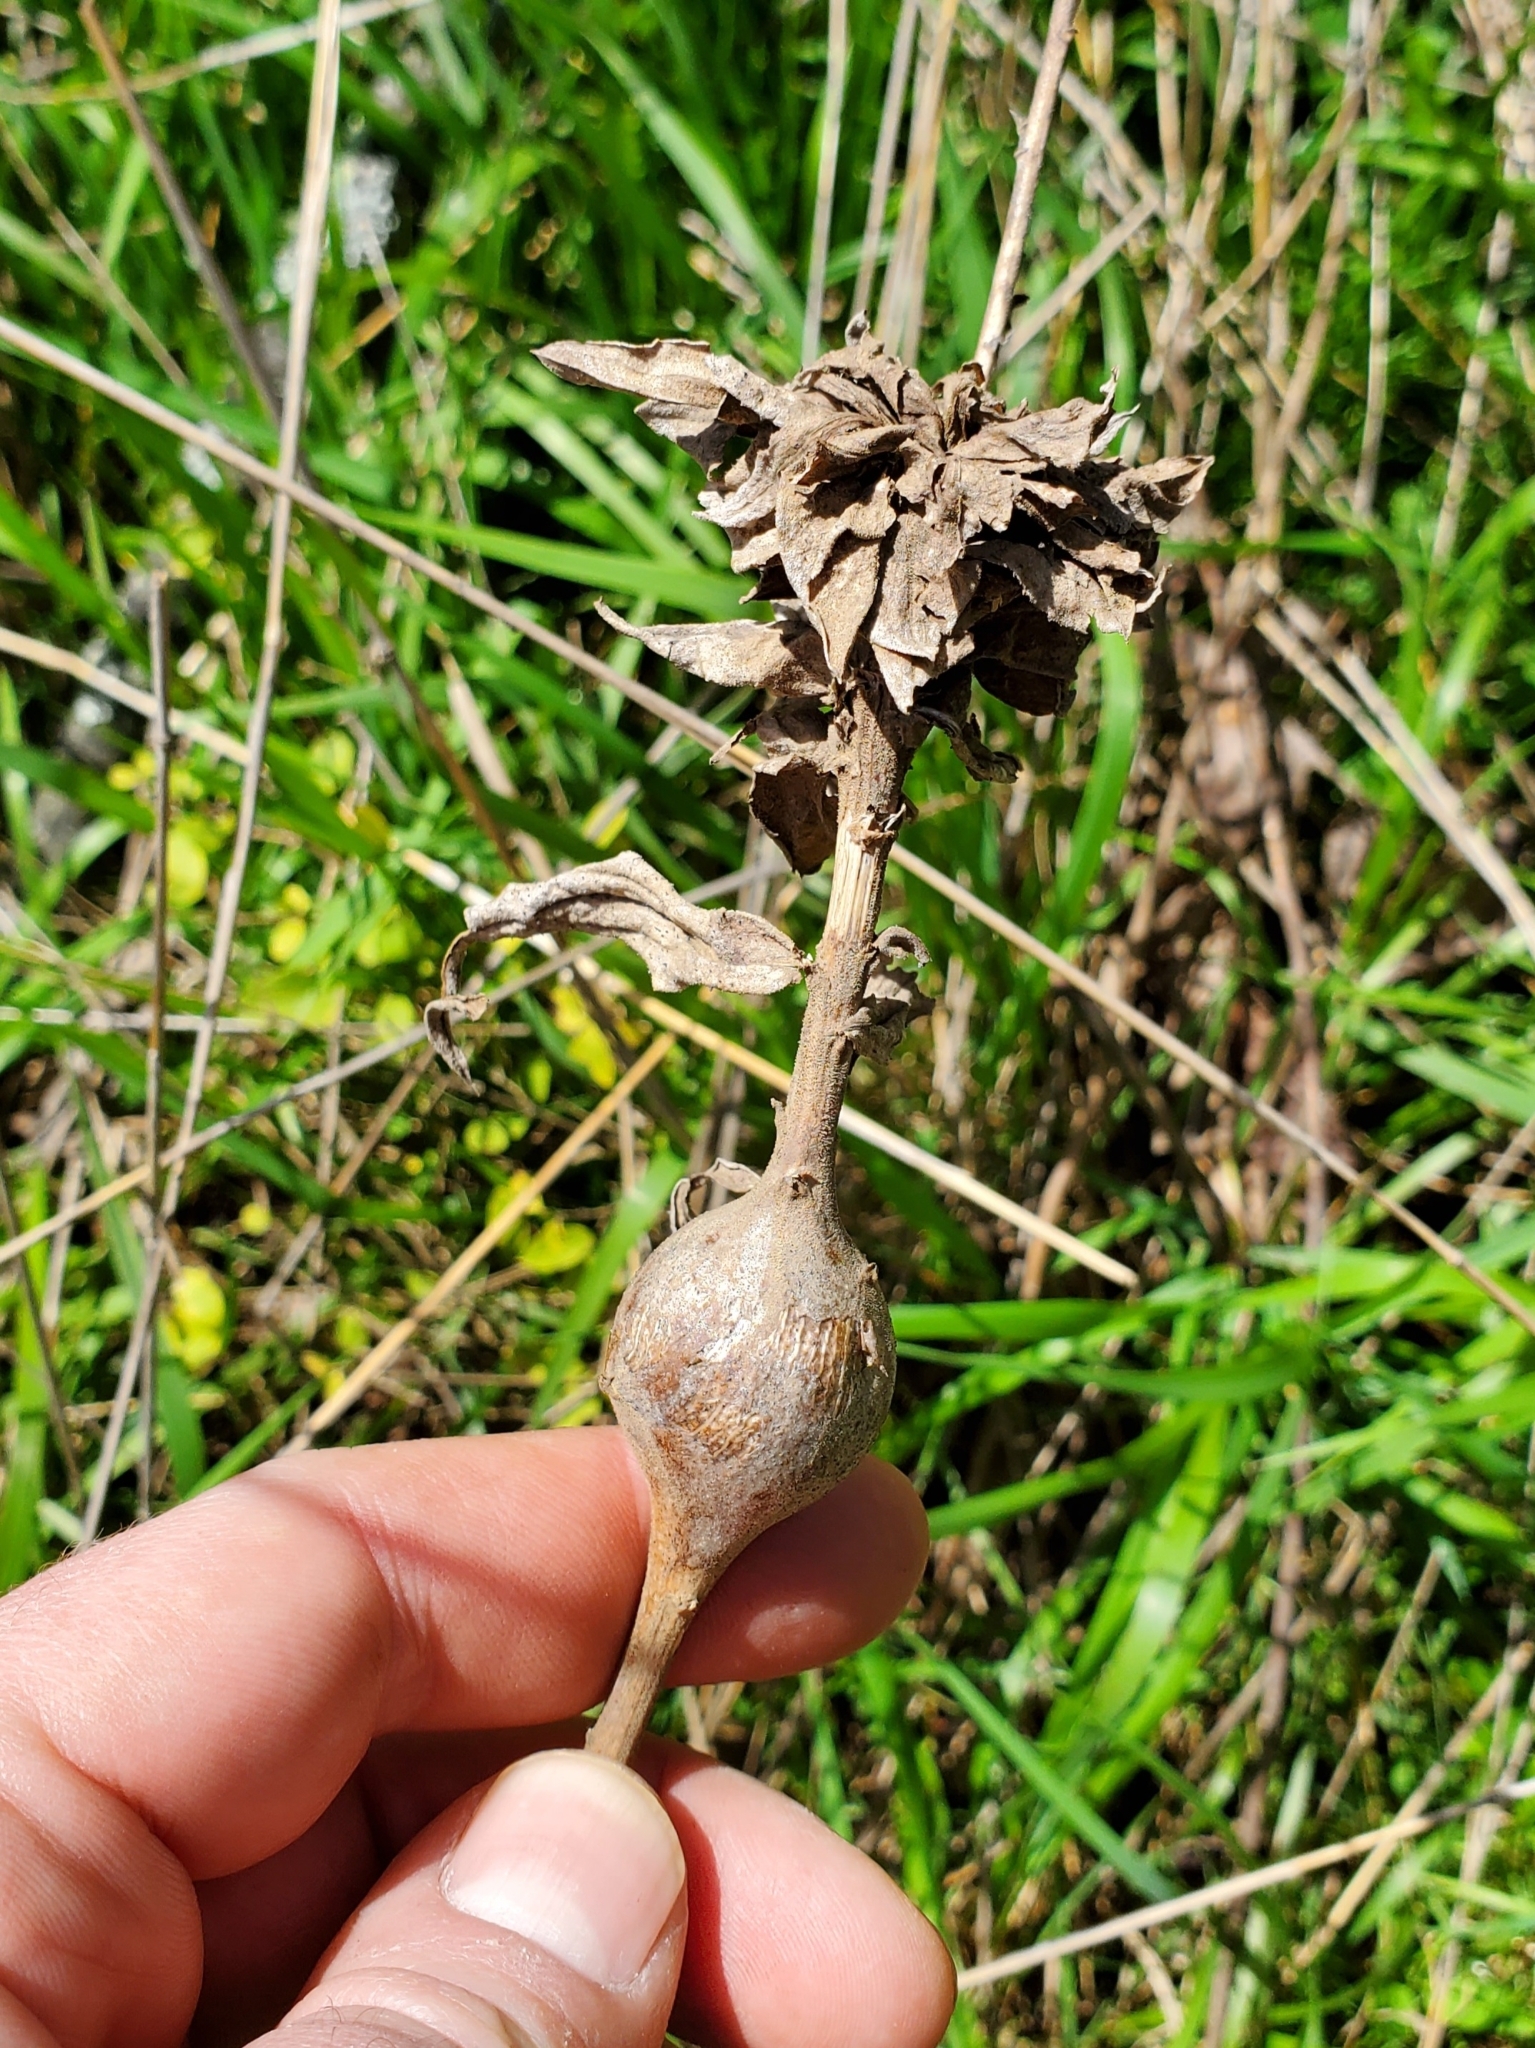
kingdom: Animalia
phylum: Arthropoda
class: Insecta
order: Diptera
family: Tephritidae
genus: Eurosta
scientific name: Eurosta solidaginis
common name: Goldenrod gall fly
